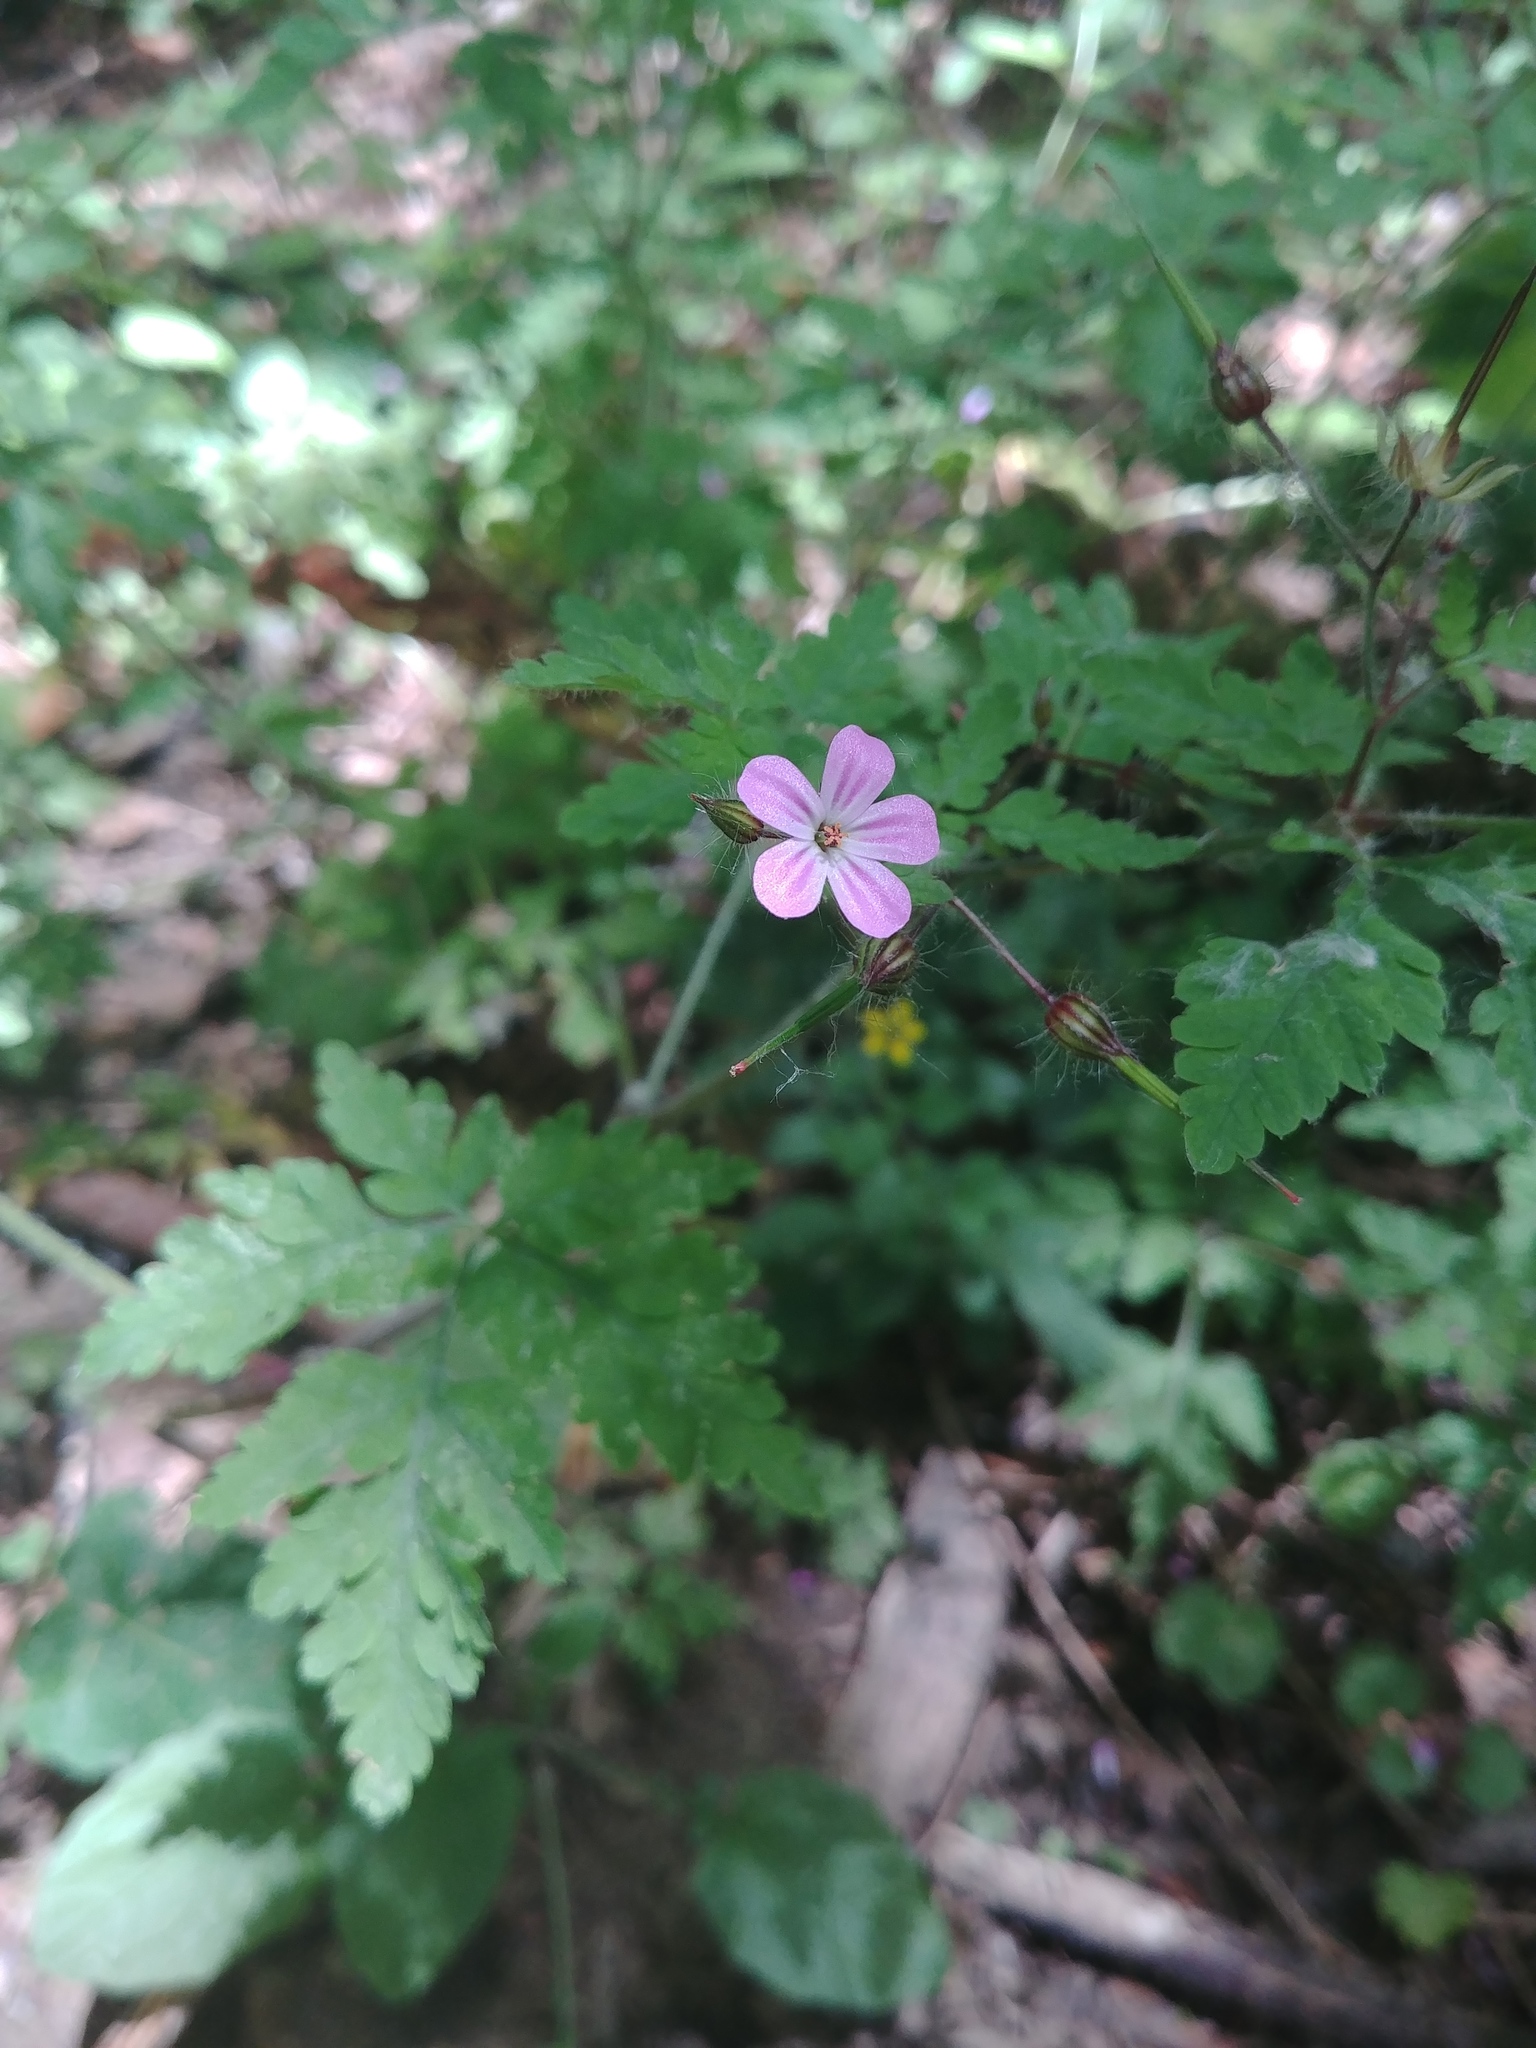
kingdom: Plantae
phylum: Tracheophyta
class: Magnoliopsida
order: Geraniales
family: Geraniaceae
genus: Geranium
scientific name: Geranium robertianum
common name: Herb-robert
